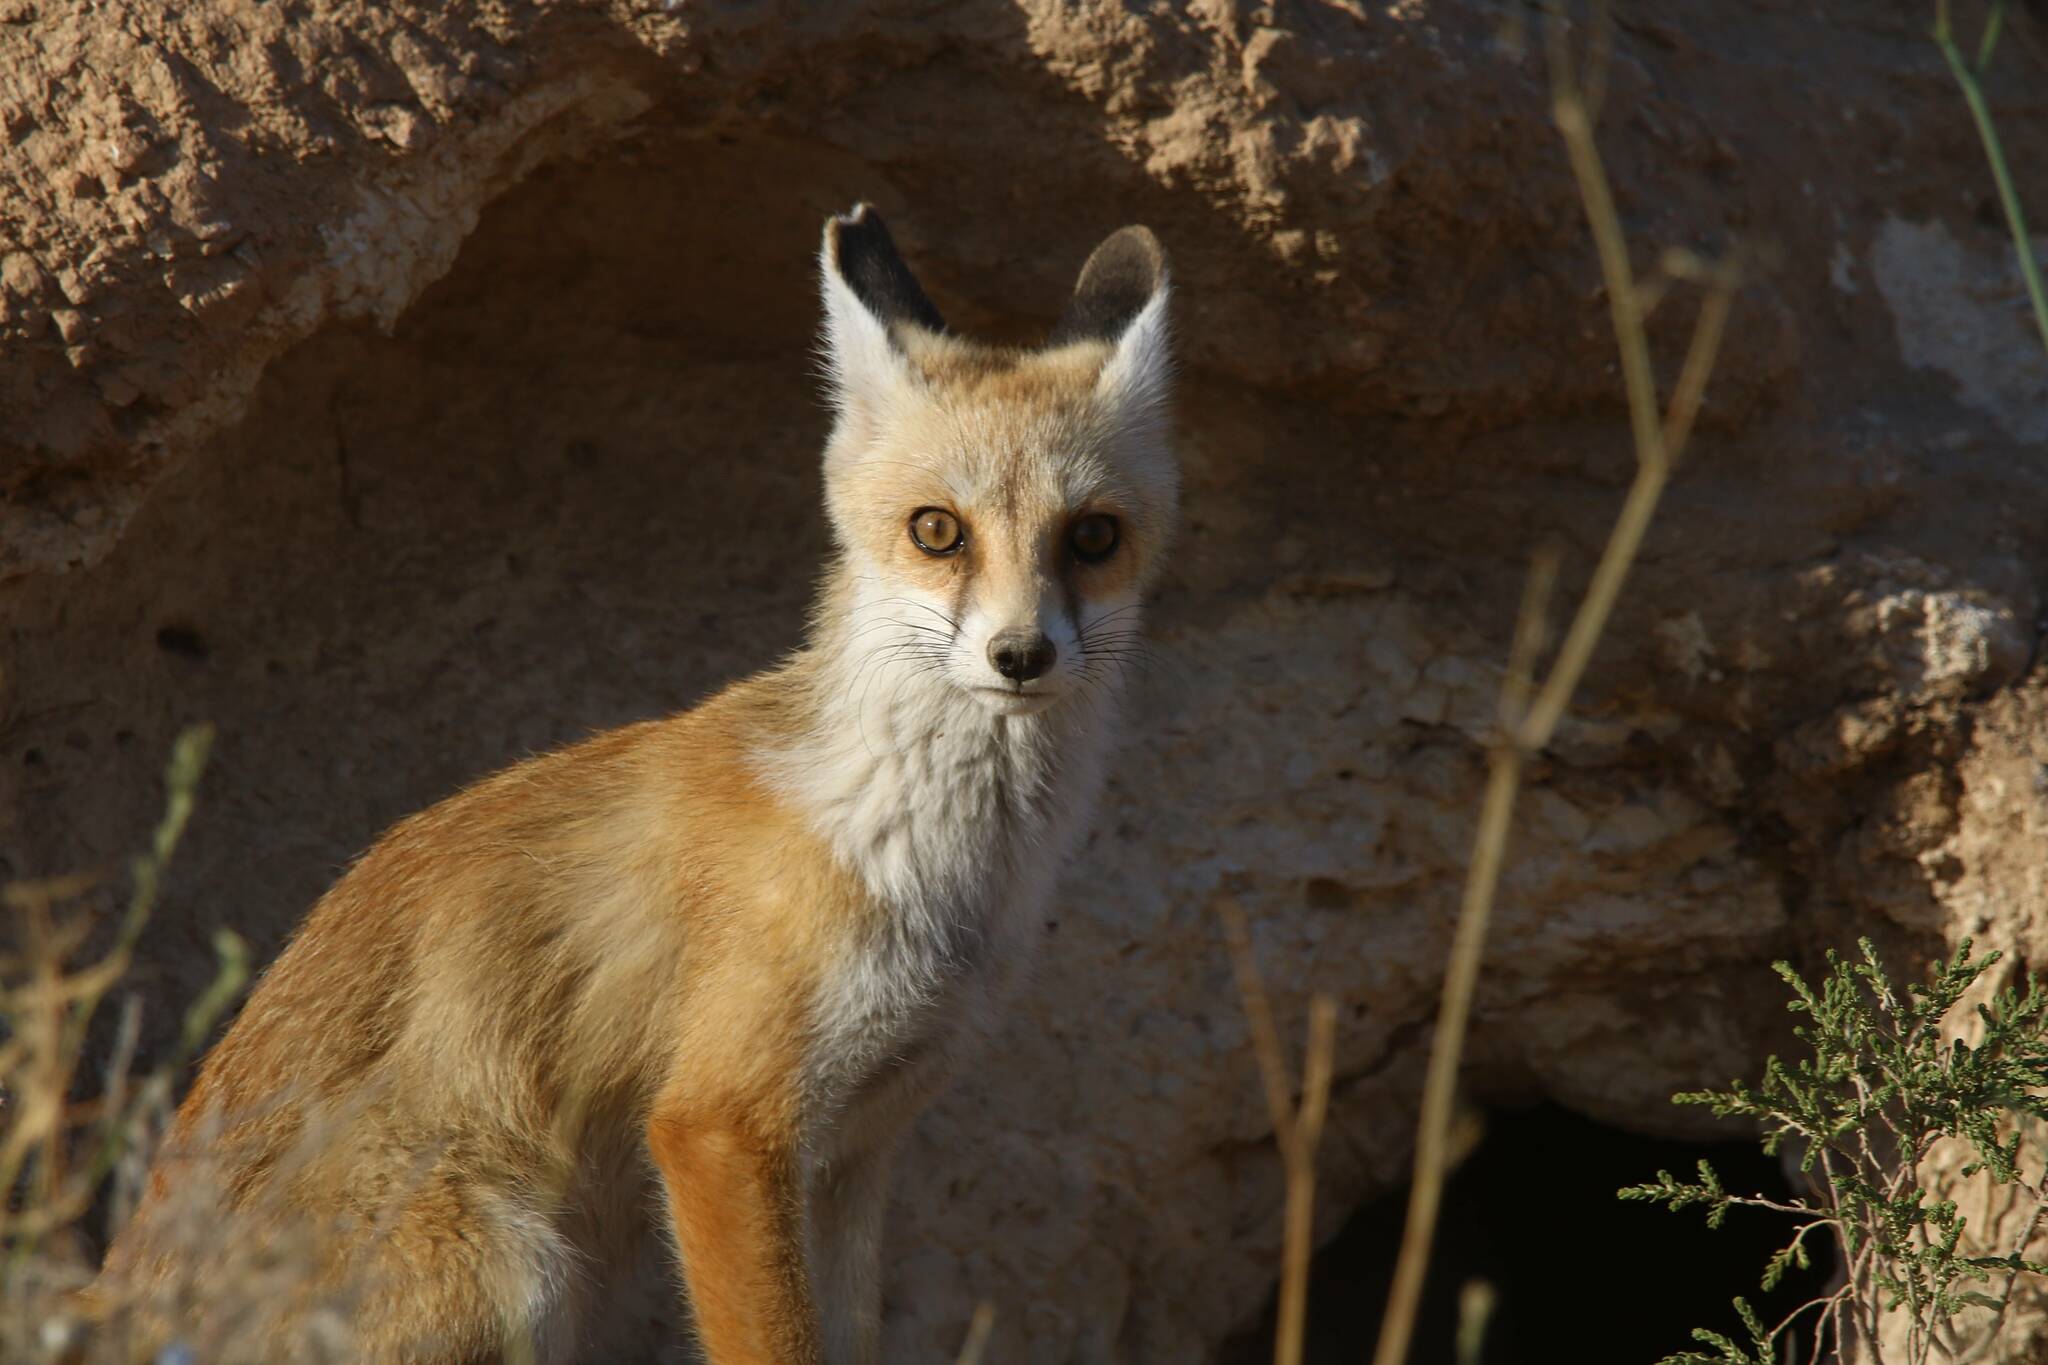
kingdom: Animalia
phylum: Chordata
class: Mammalia
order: Carnivora
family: Canidae
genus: Vulpes
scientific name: Vulpes vulpes
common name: Red fox
